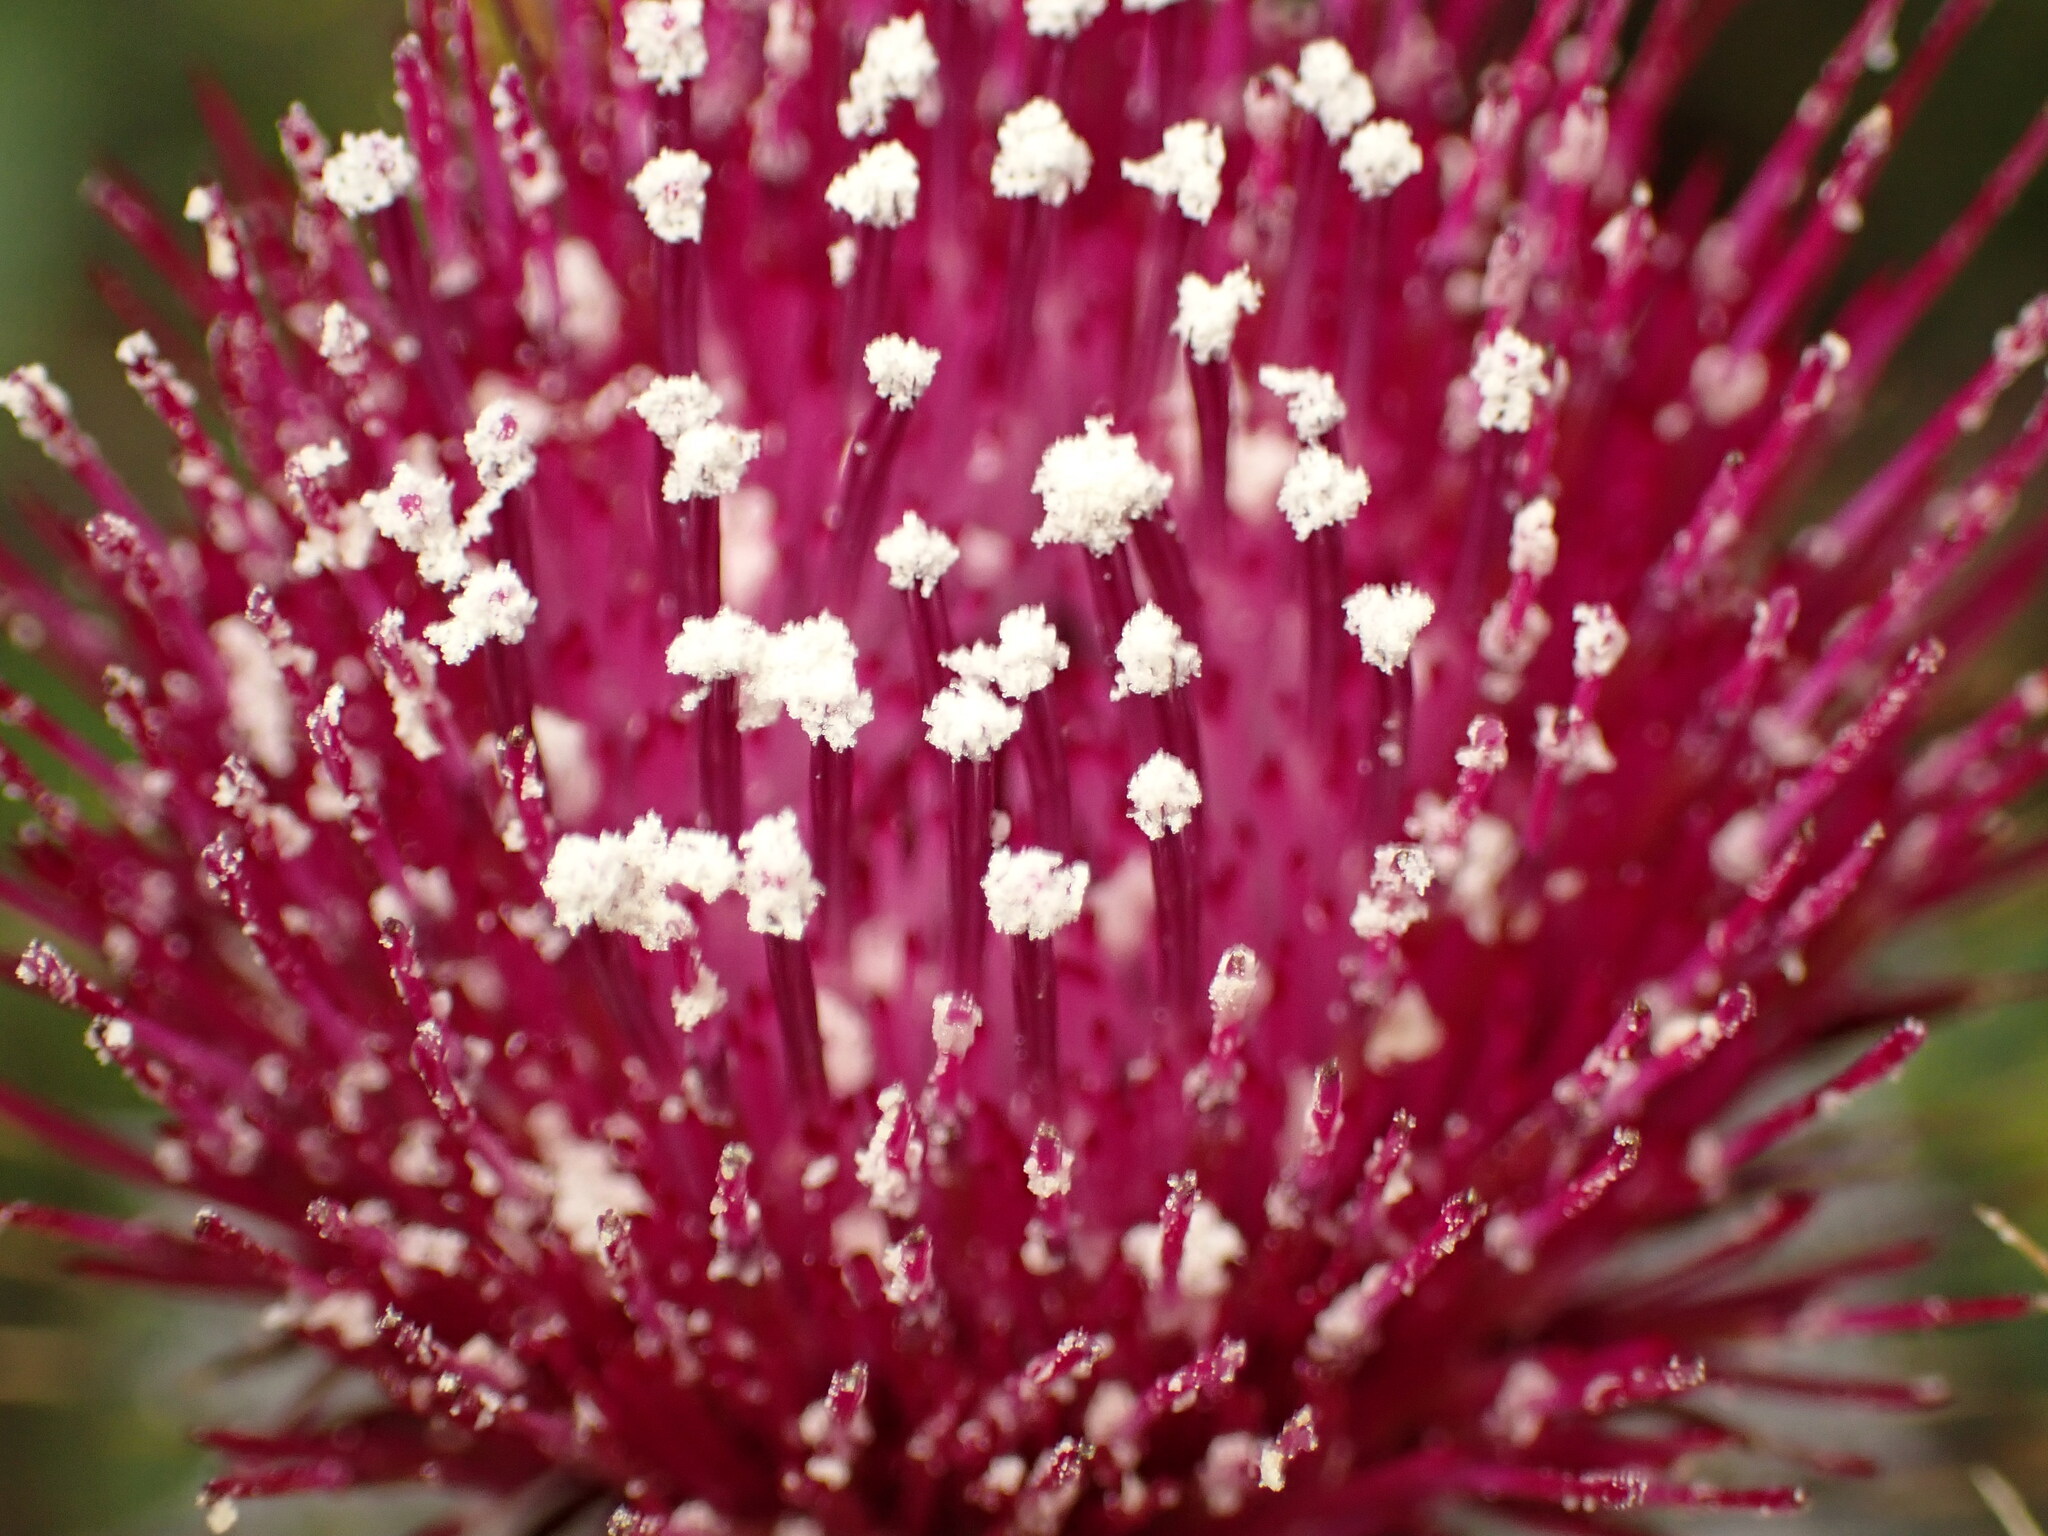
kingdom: Plantae
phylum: Tracheophyta
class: Magnoliopsida
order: Asterales
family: Asteraceae
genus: Cirsium
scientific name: Cirsium occidentale
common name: Western thistle
